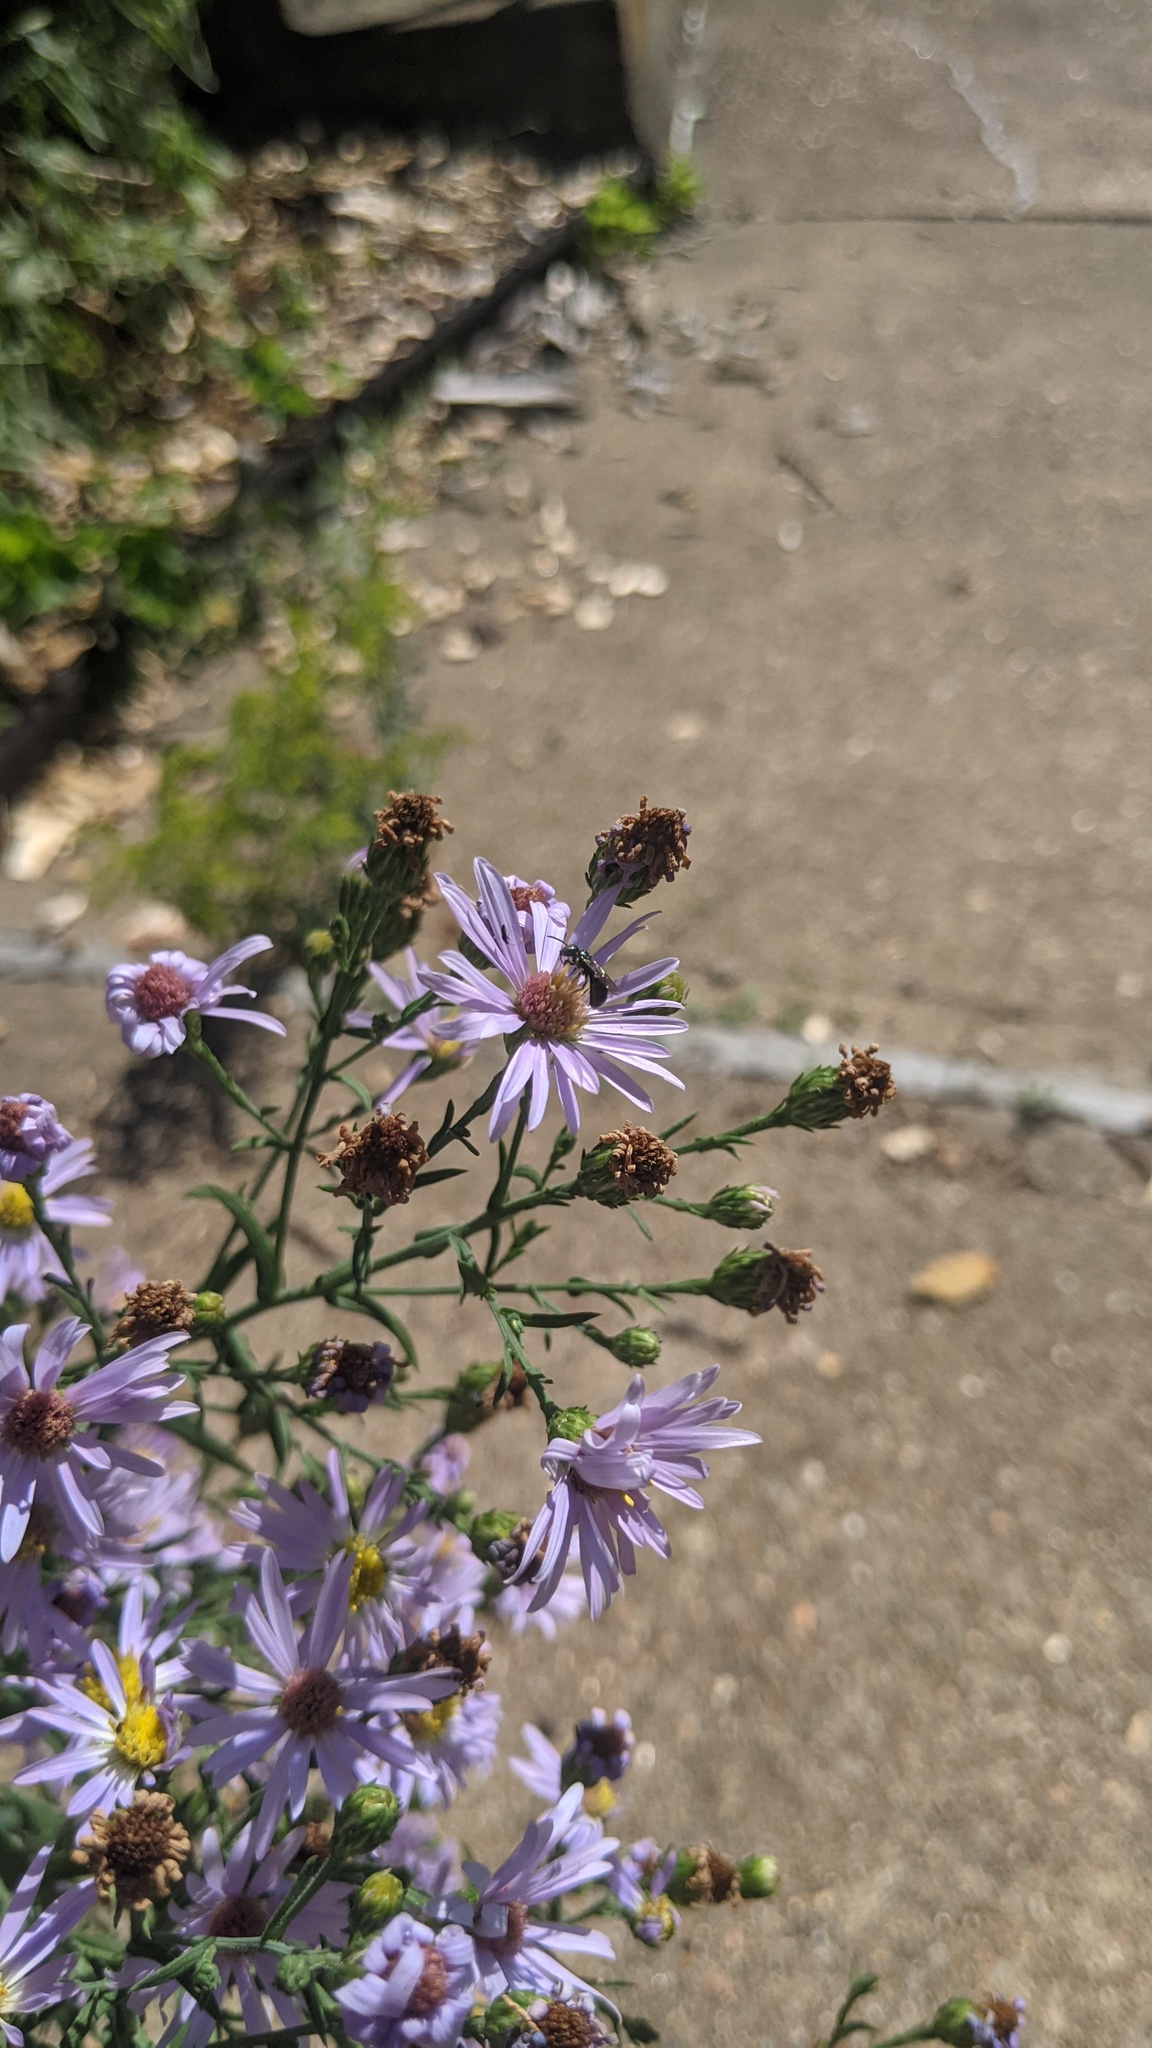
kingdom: Animalia
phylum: Arthropoda
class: Insecta
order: Hymenoptera
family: Apidae
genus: Zadontomerus
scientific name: Zadontomerus
